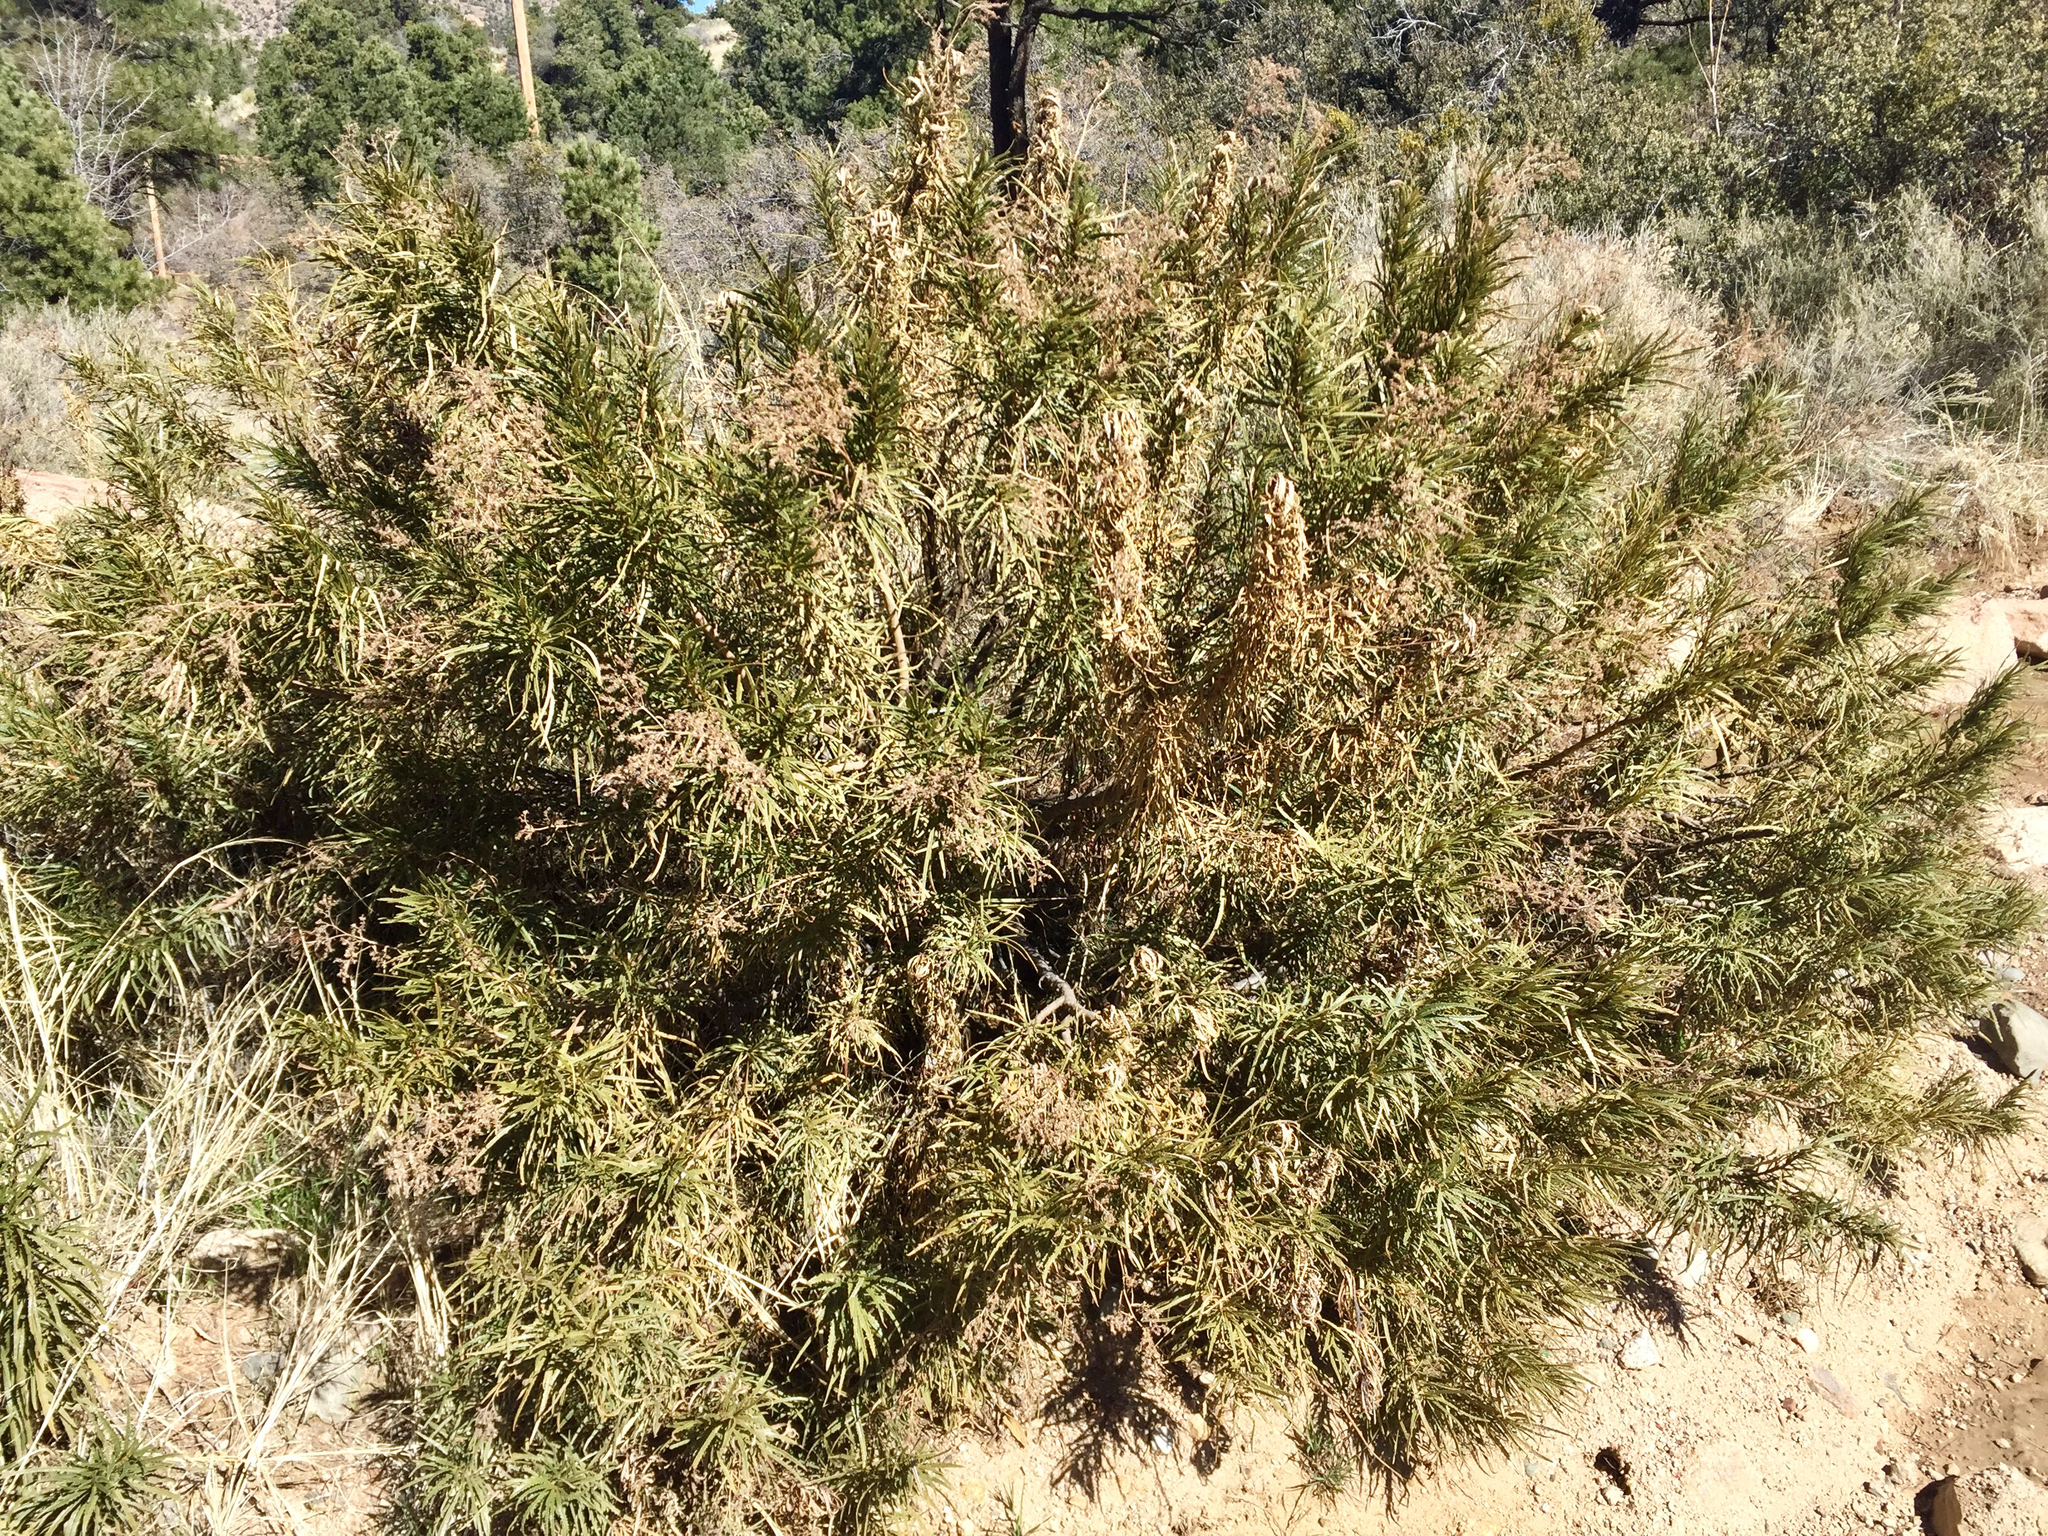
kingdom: Plantae
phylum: Tracheophyta
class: Magnoliopsida
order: Boraginales
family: Namaceae
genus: Eriodictyon
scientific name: Eriodictyon angustifolium
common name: Narrow-leaf yerba santa
